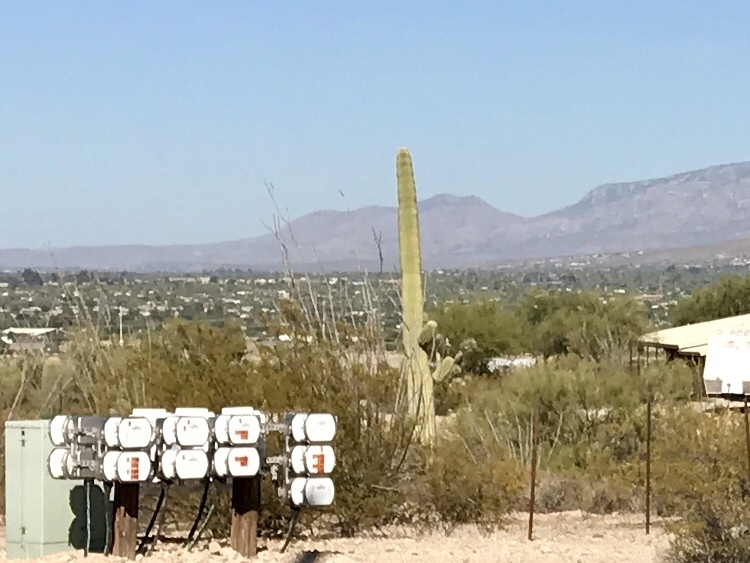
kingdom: Plantae
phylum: Tracheophyta
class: Magnoliopsida
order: Caryophyllales
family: Cactaceae
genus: Carnegiea
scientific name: Carnegiea gigantea
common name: Saguaro
